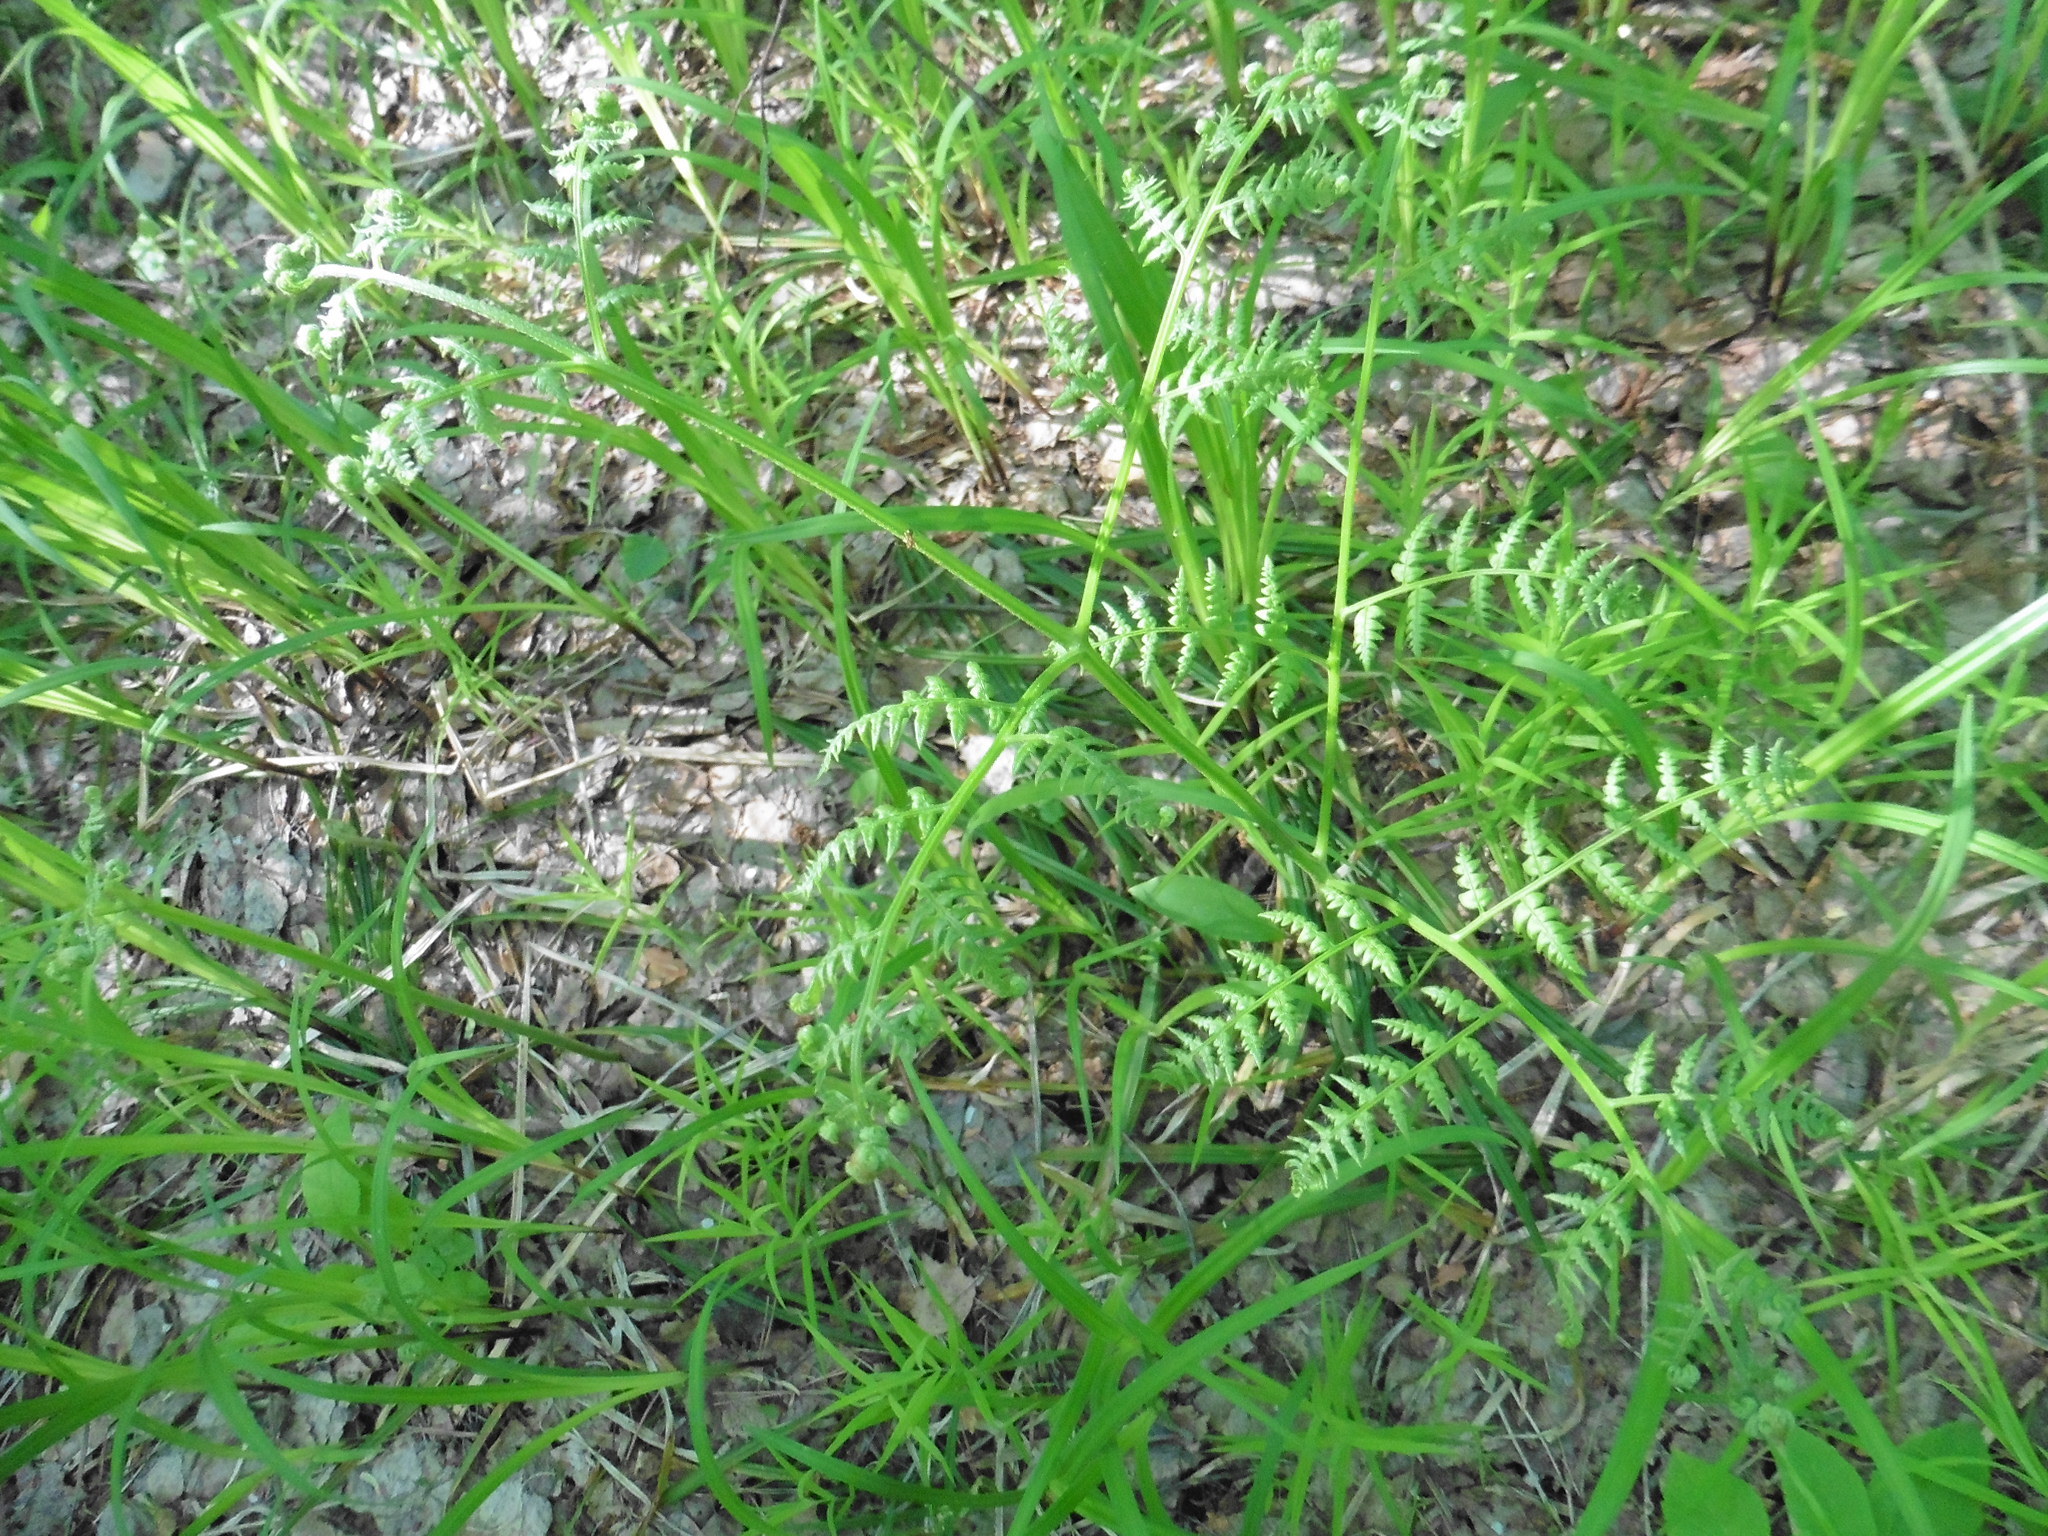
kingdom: Plantae
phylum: Tracheophyta
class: Polypodiopsida
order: Polypodiales
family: Dennstaedtiaceae
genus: Pteridium
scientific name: Pteridium aquilinum
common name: Bracken
